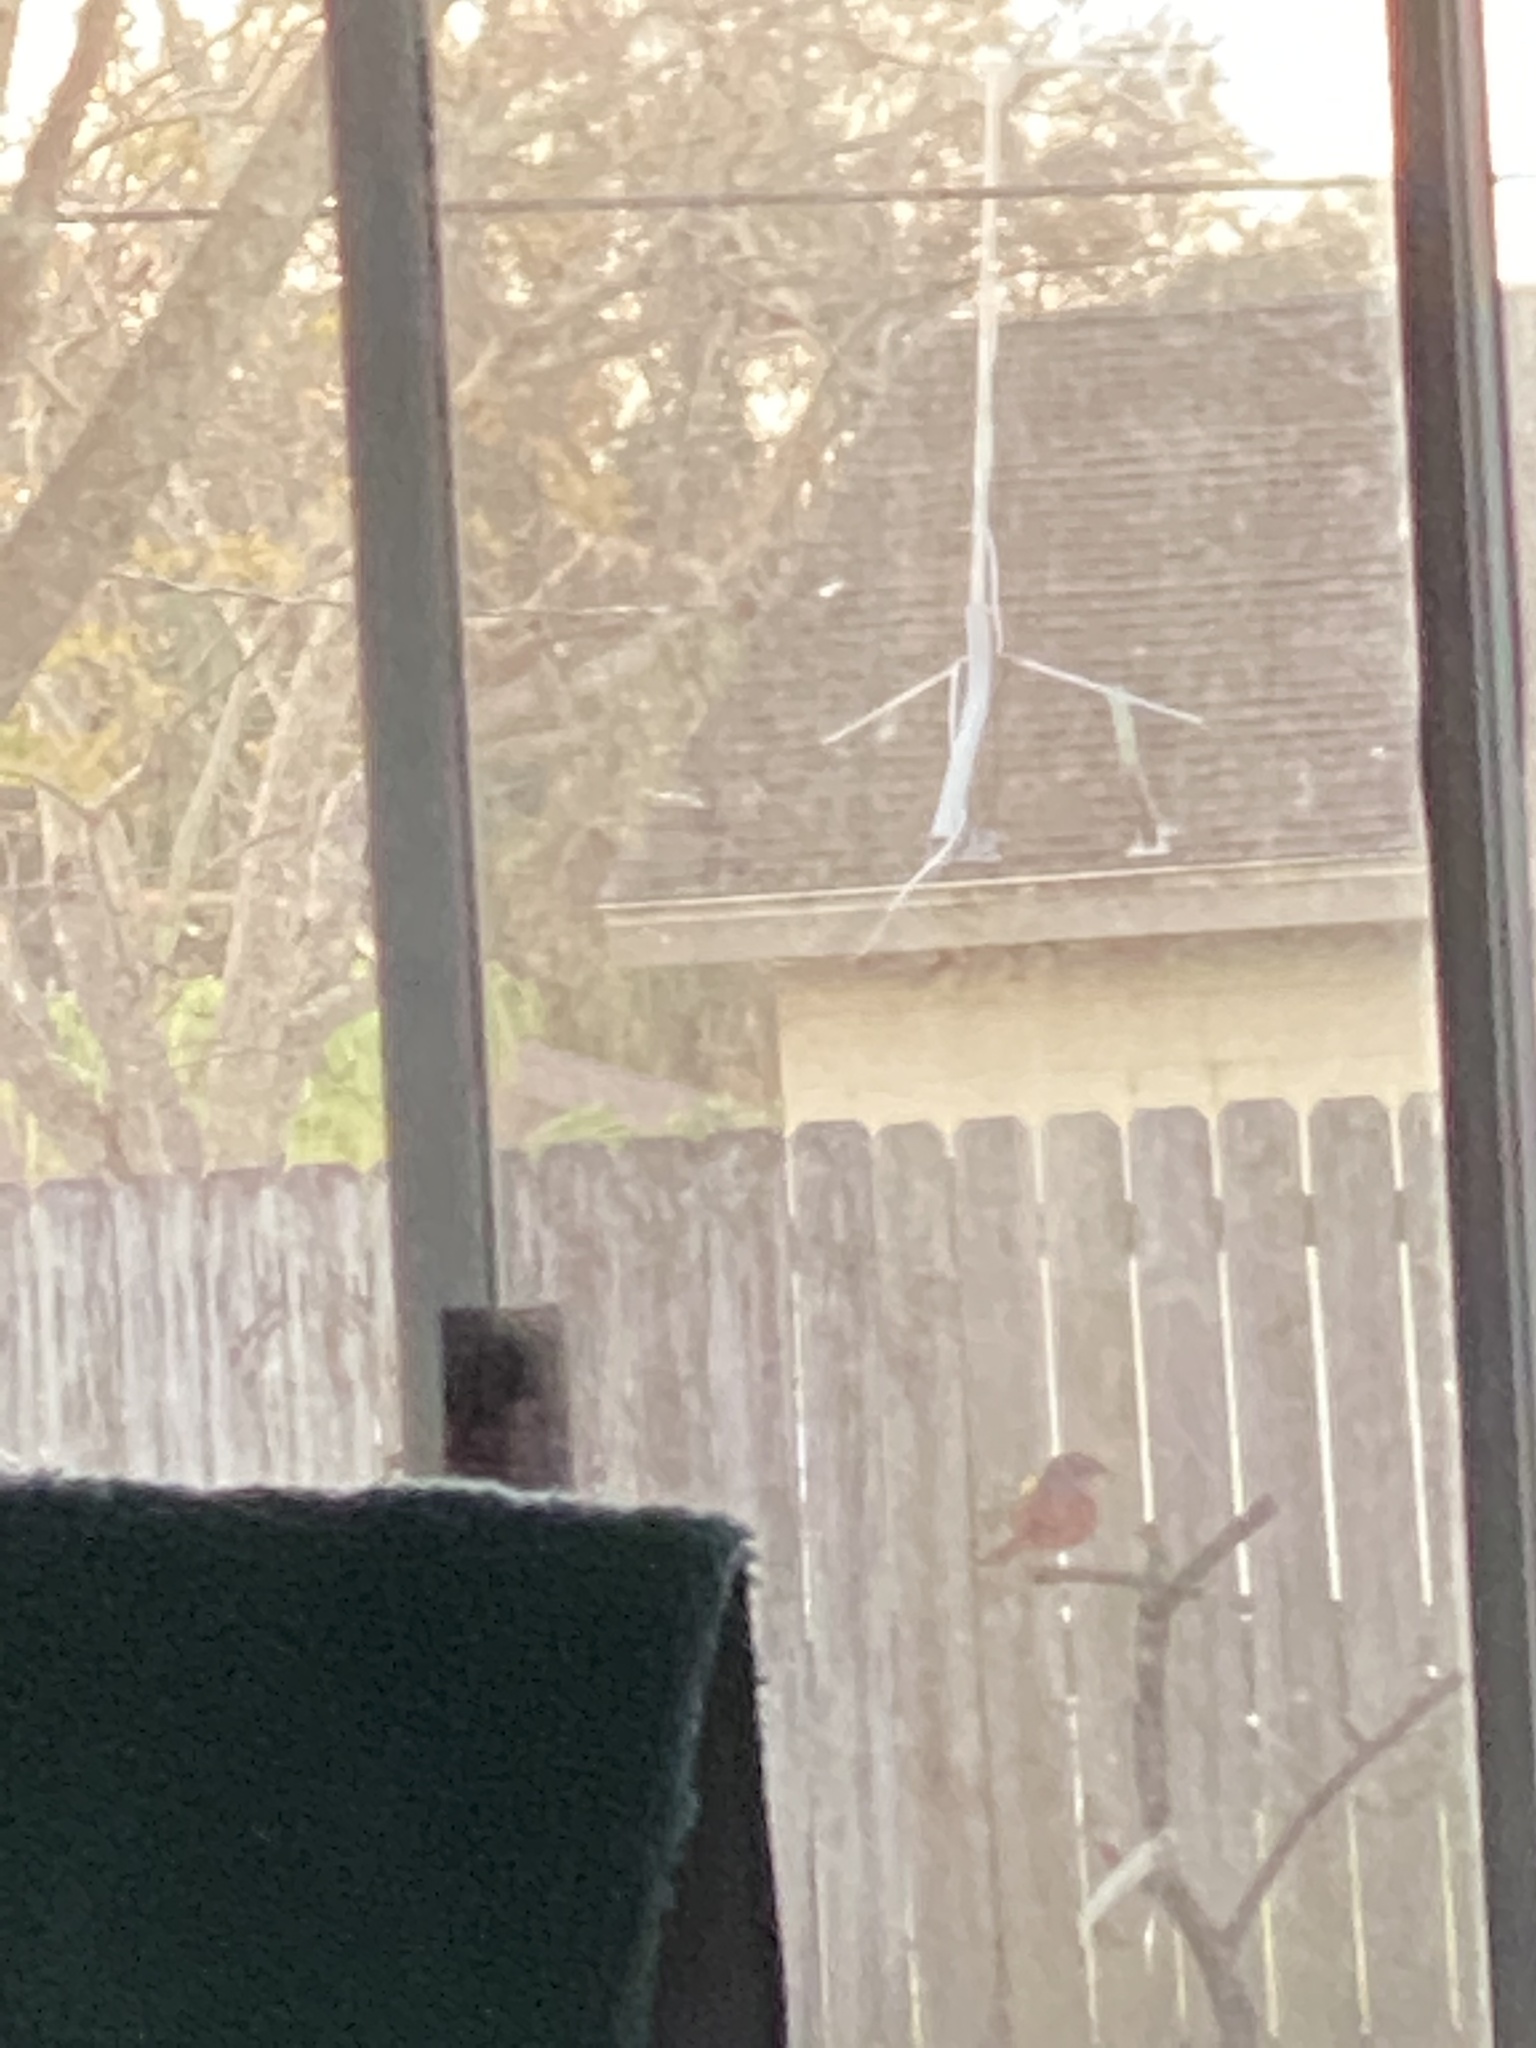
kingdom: Animalia
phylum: Chordata
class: Aves
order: Passeriformes
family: Cardinalidae
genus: Passerina
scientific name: Passerina ciris
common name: Painted bunting
